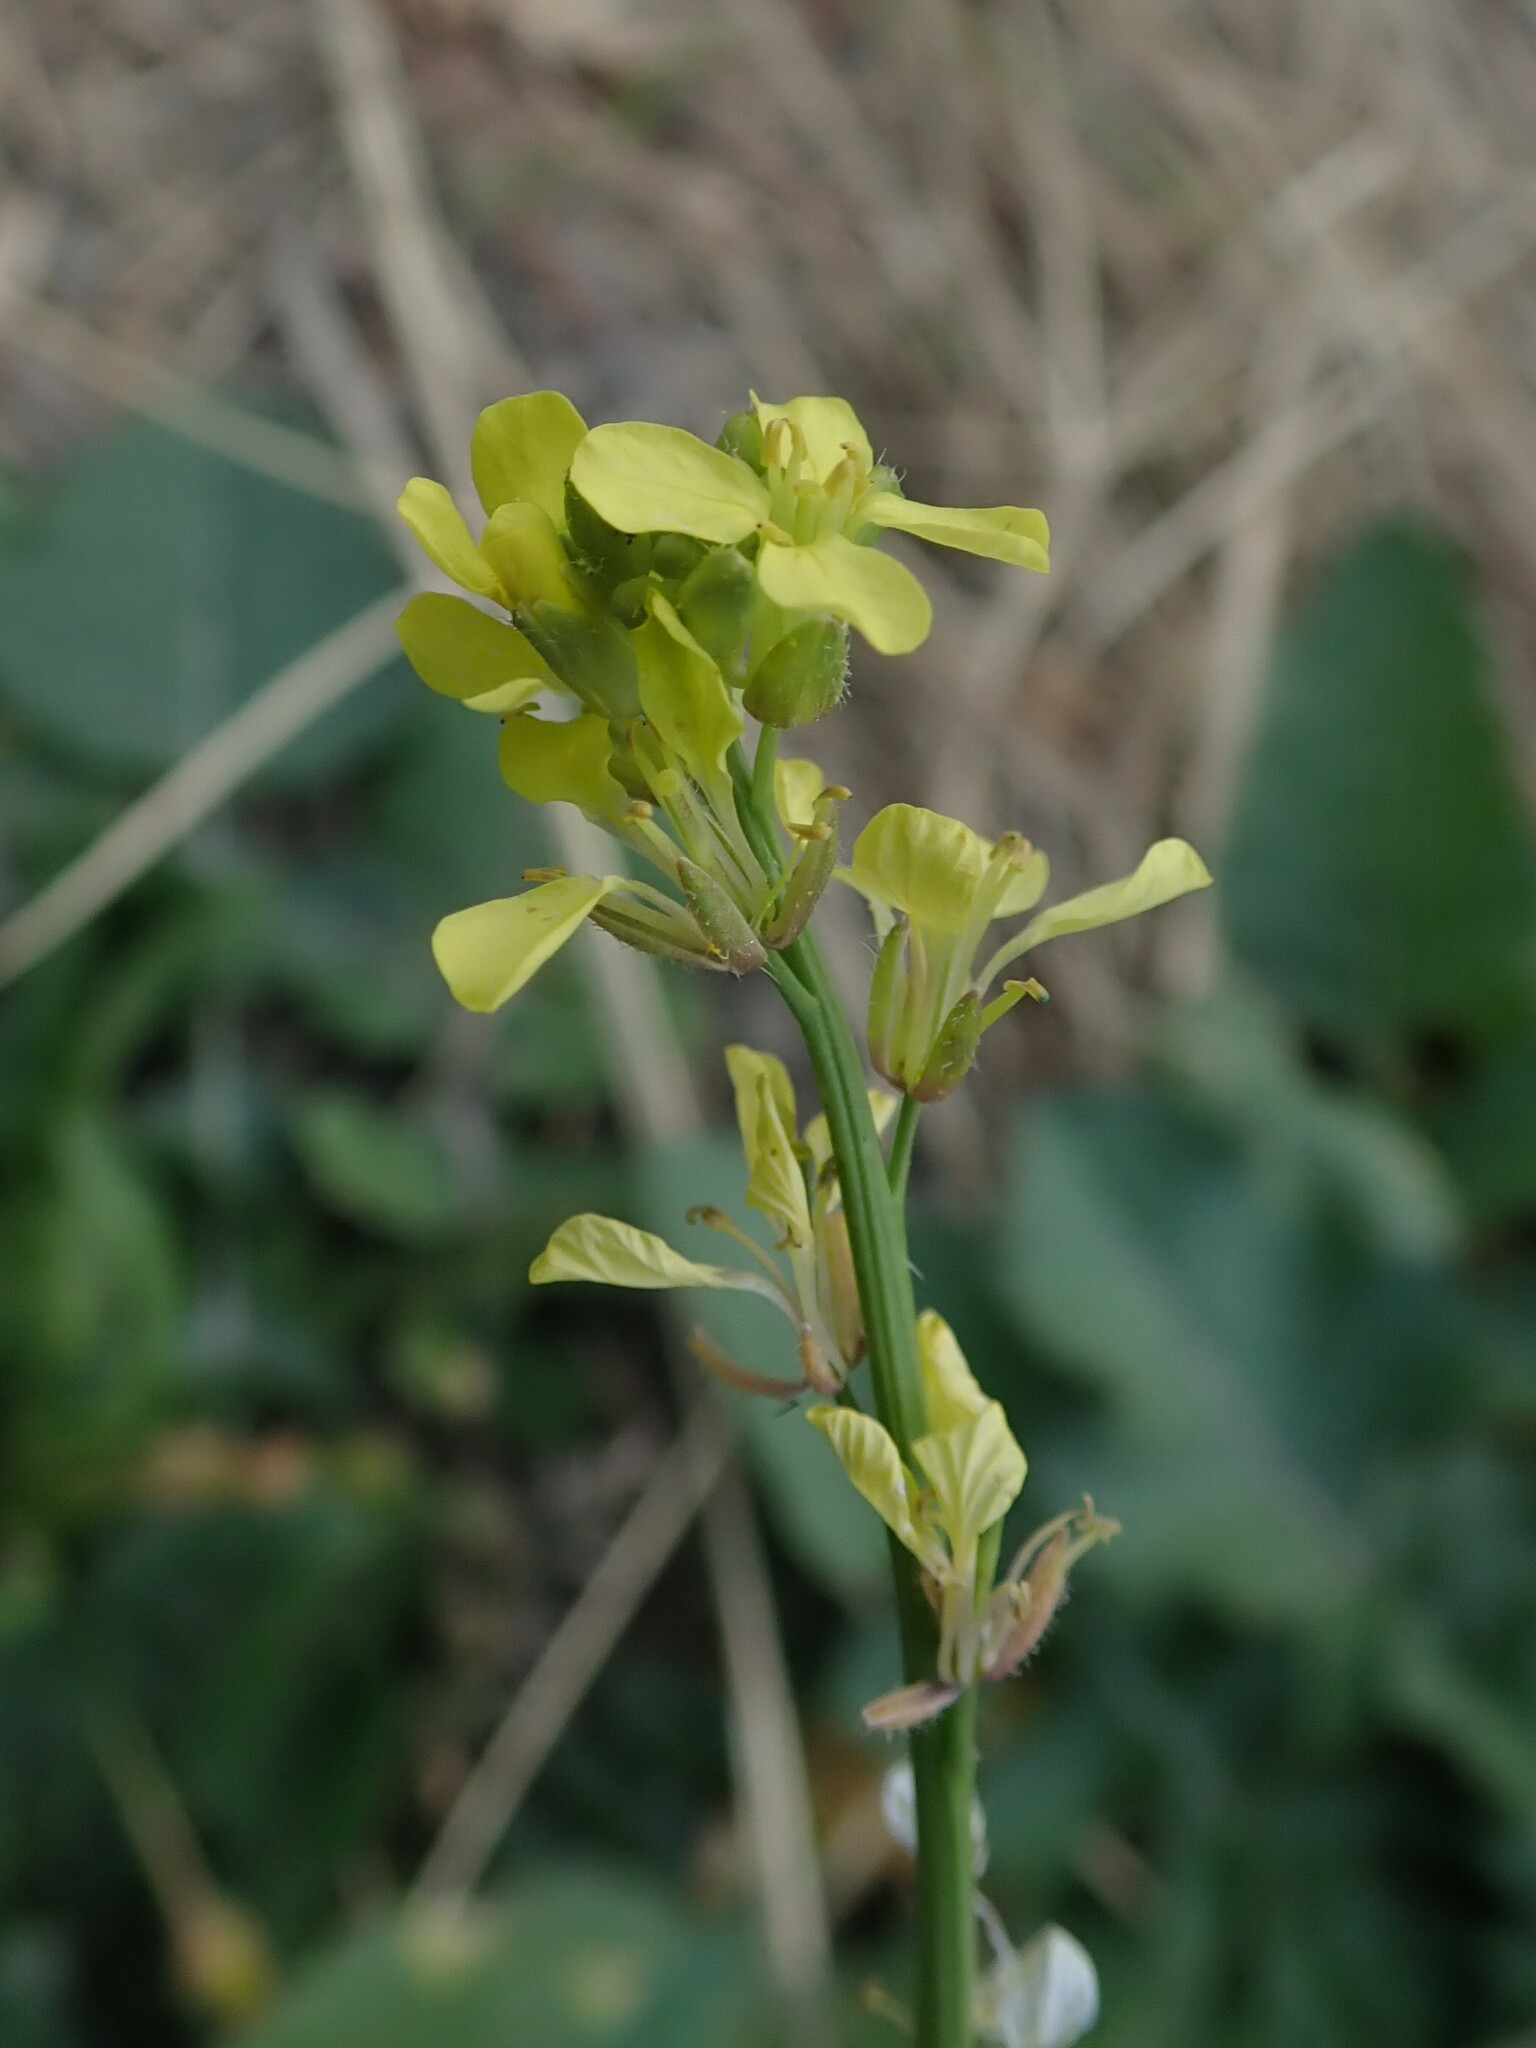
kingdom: Plantae
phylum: Tracheophyta
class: Magnoliopsida
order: Brassicales
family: Brassicaceae
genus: Hirschfeldia
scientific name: Hirschfeldia incana
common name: Hoary mustard
